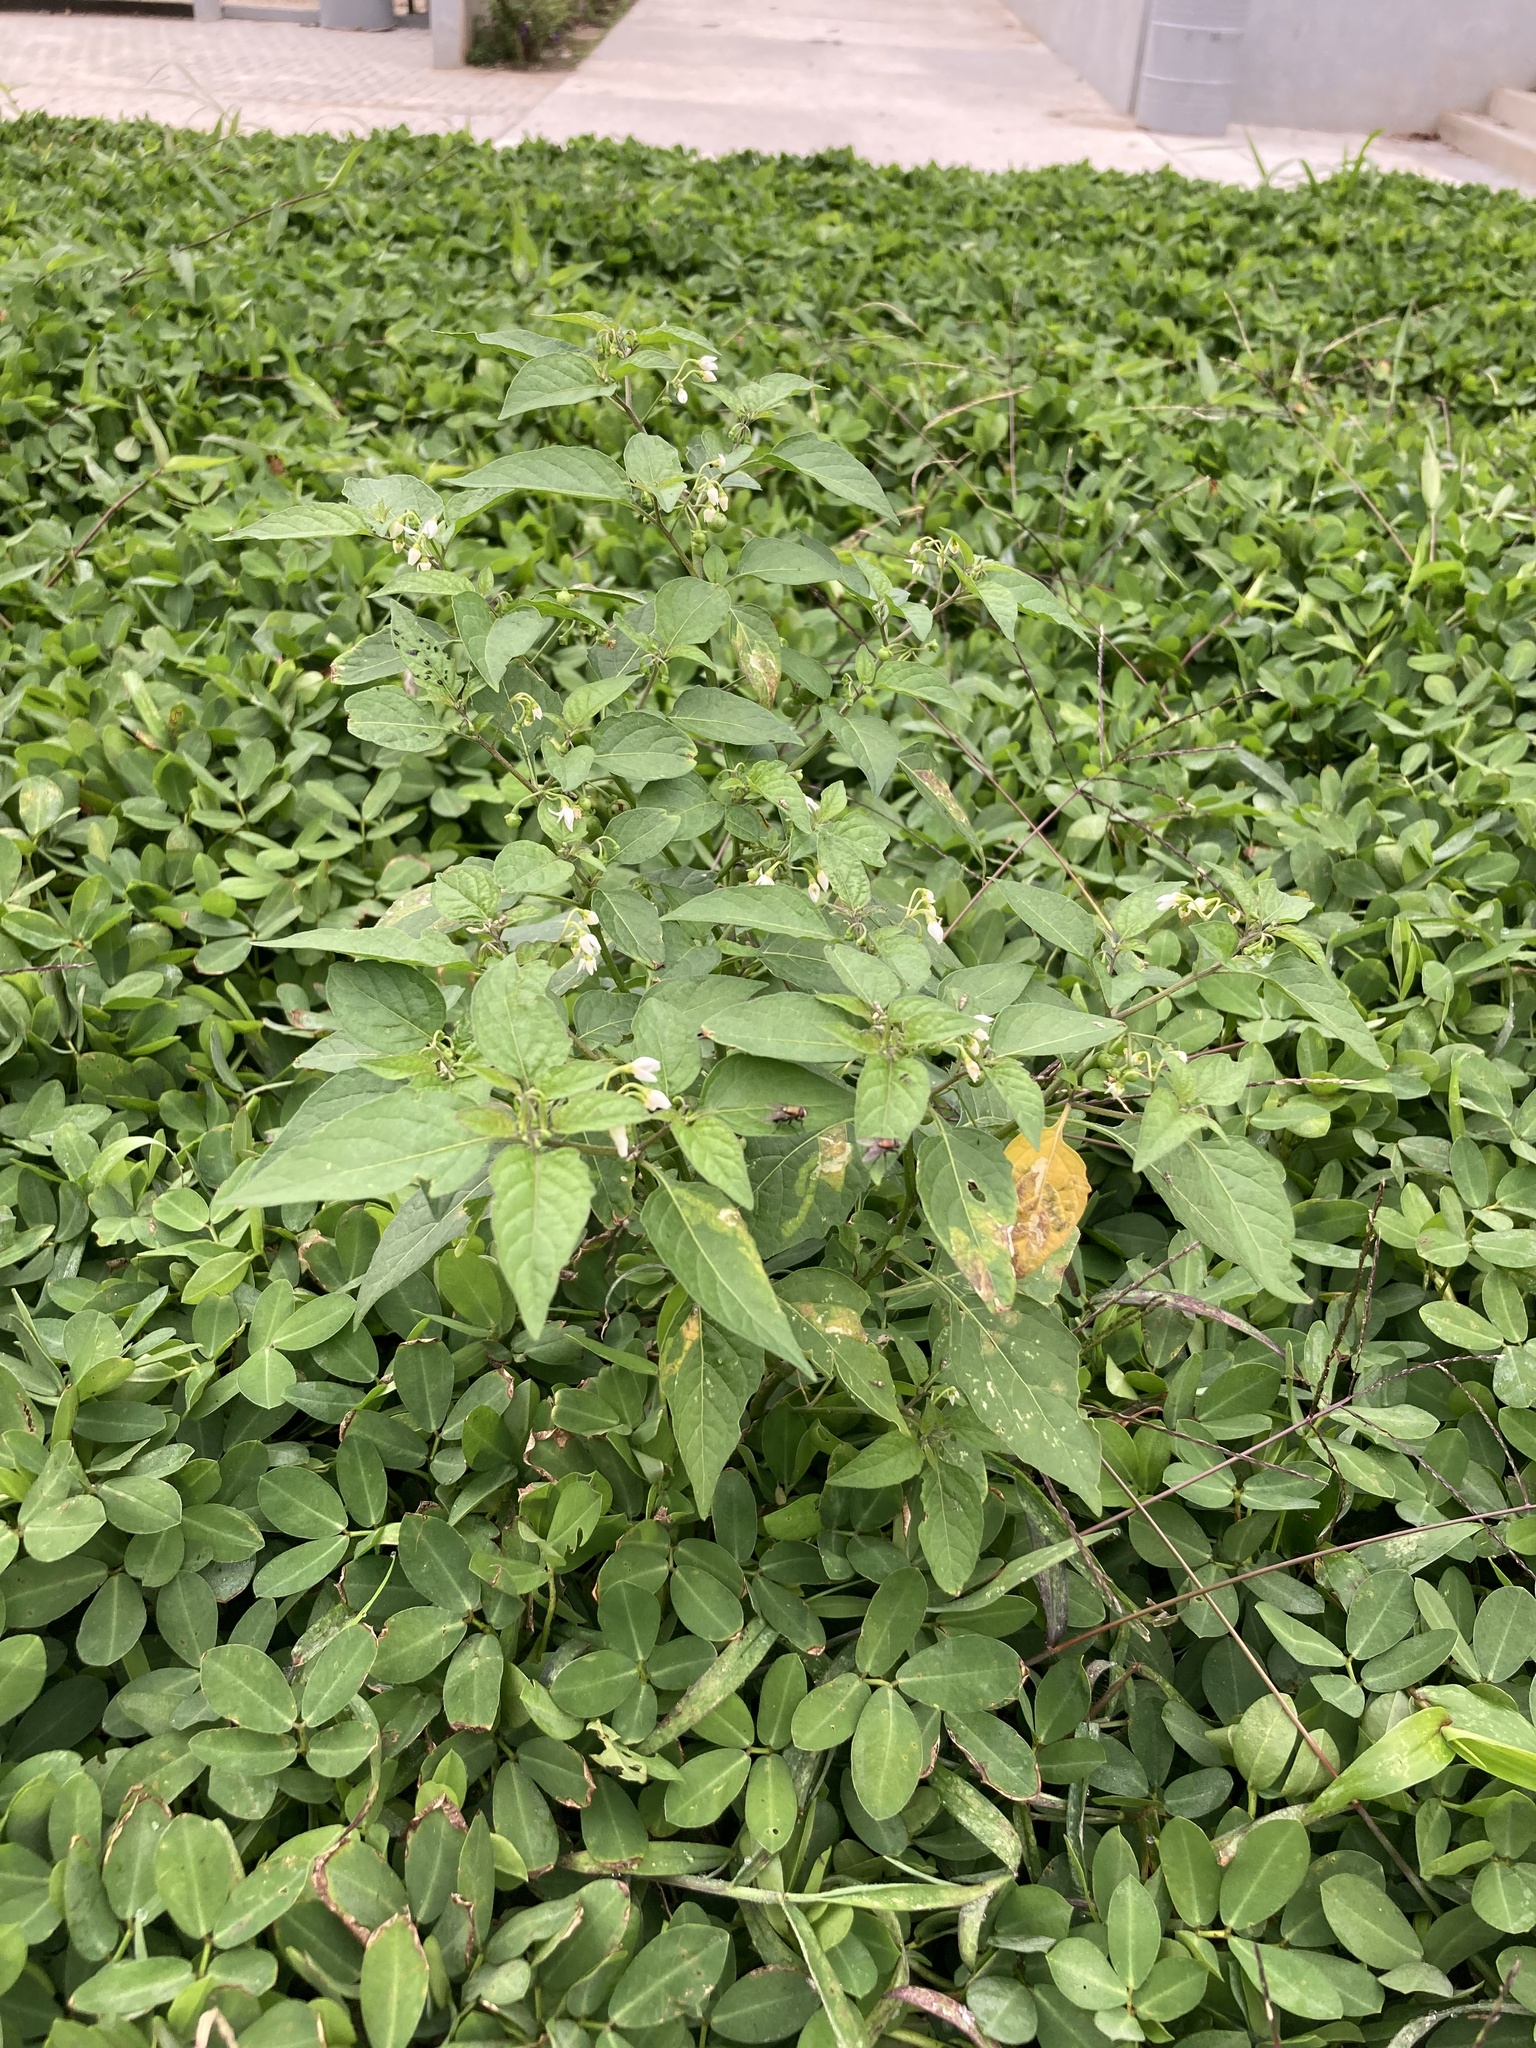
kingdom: Plantae
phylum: Tracheophyta
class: Magnoliopsida
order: Solanales
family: Solanaceae
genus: Solanum
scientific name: Solanum americanum
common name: American black nightshade
